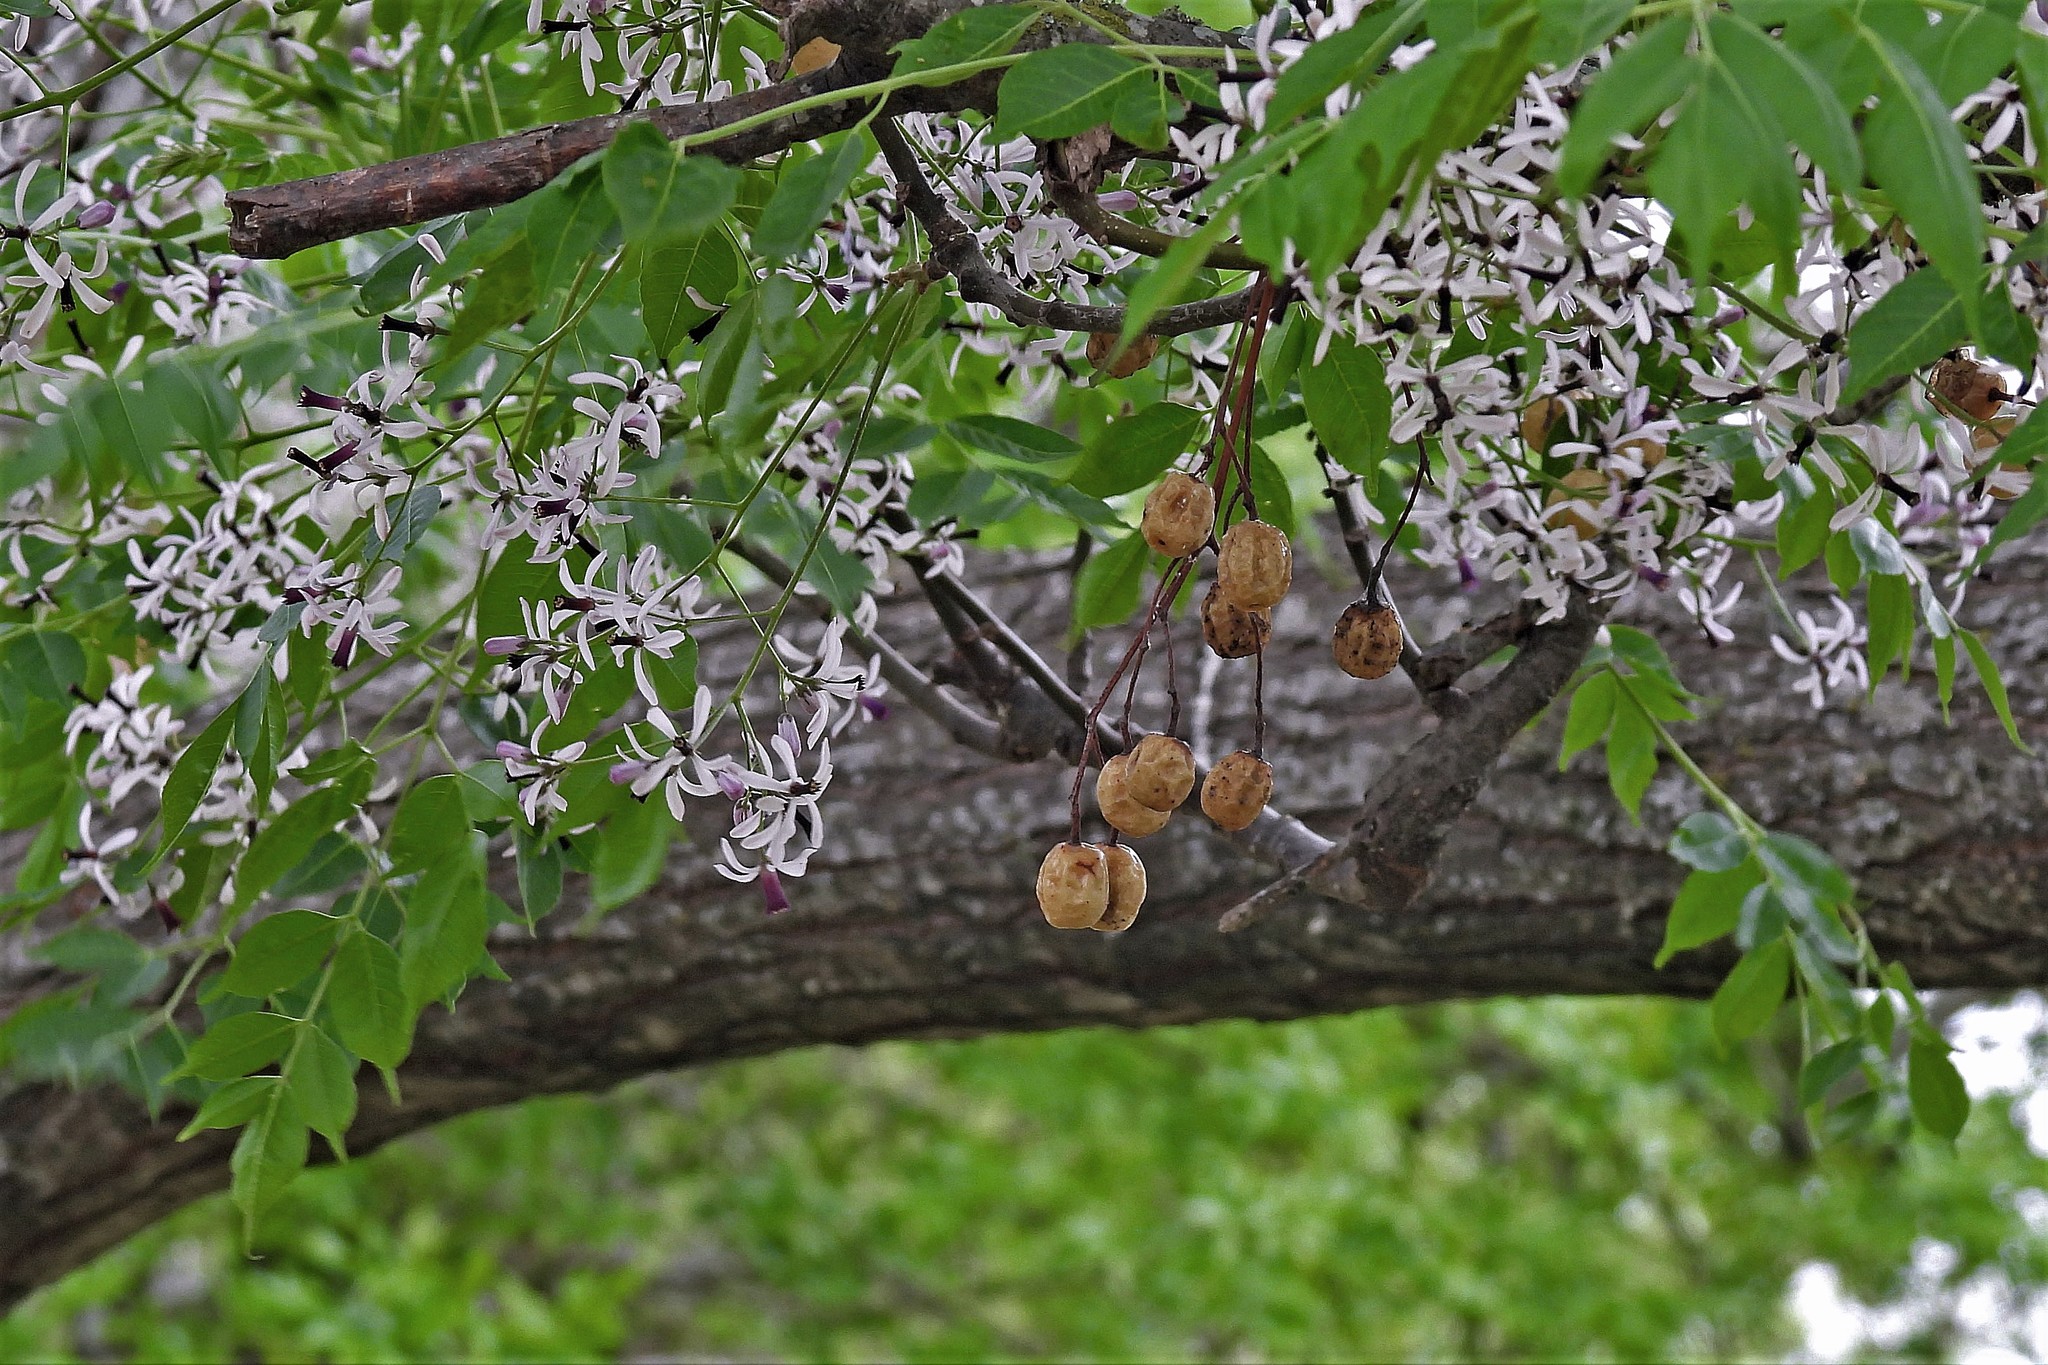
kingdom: Plantae
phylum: Tracheophyta
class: Magnoliopsida
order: Sapindales
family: Meliaceae
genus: Melia
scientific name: Melia azedarach
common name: Chinaberrytree
